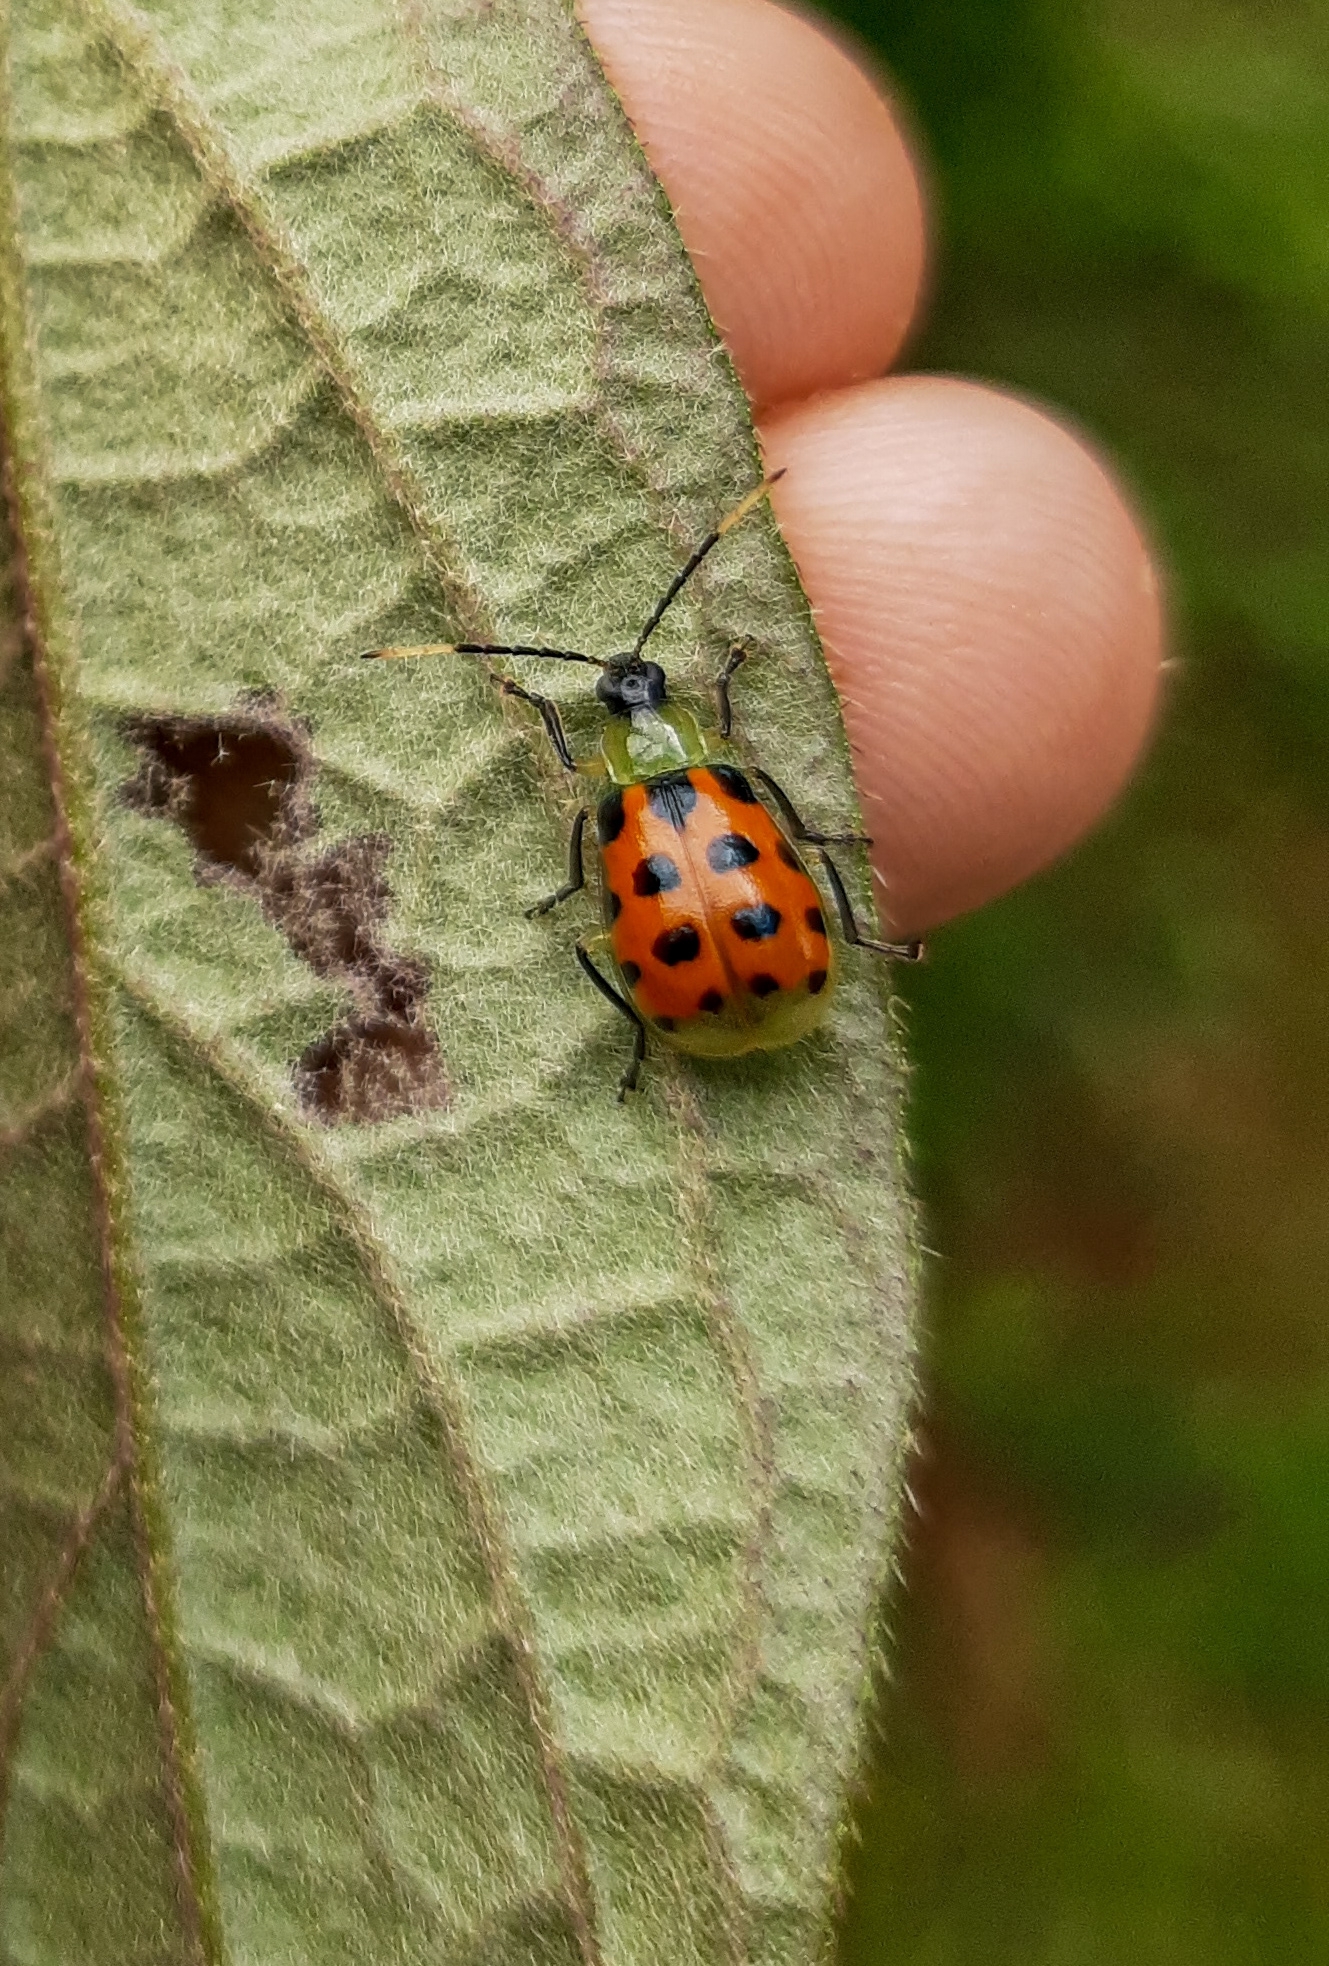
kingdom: Animalia
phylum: Arthropoda
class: Insecta
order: Coleoptera
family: Chrysomelidae
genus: Diabrotica
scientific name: Diabrotica limitata
